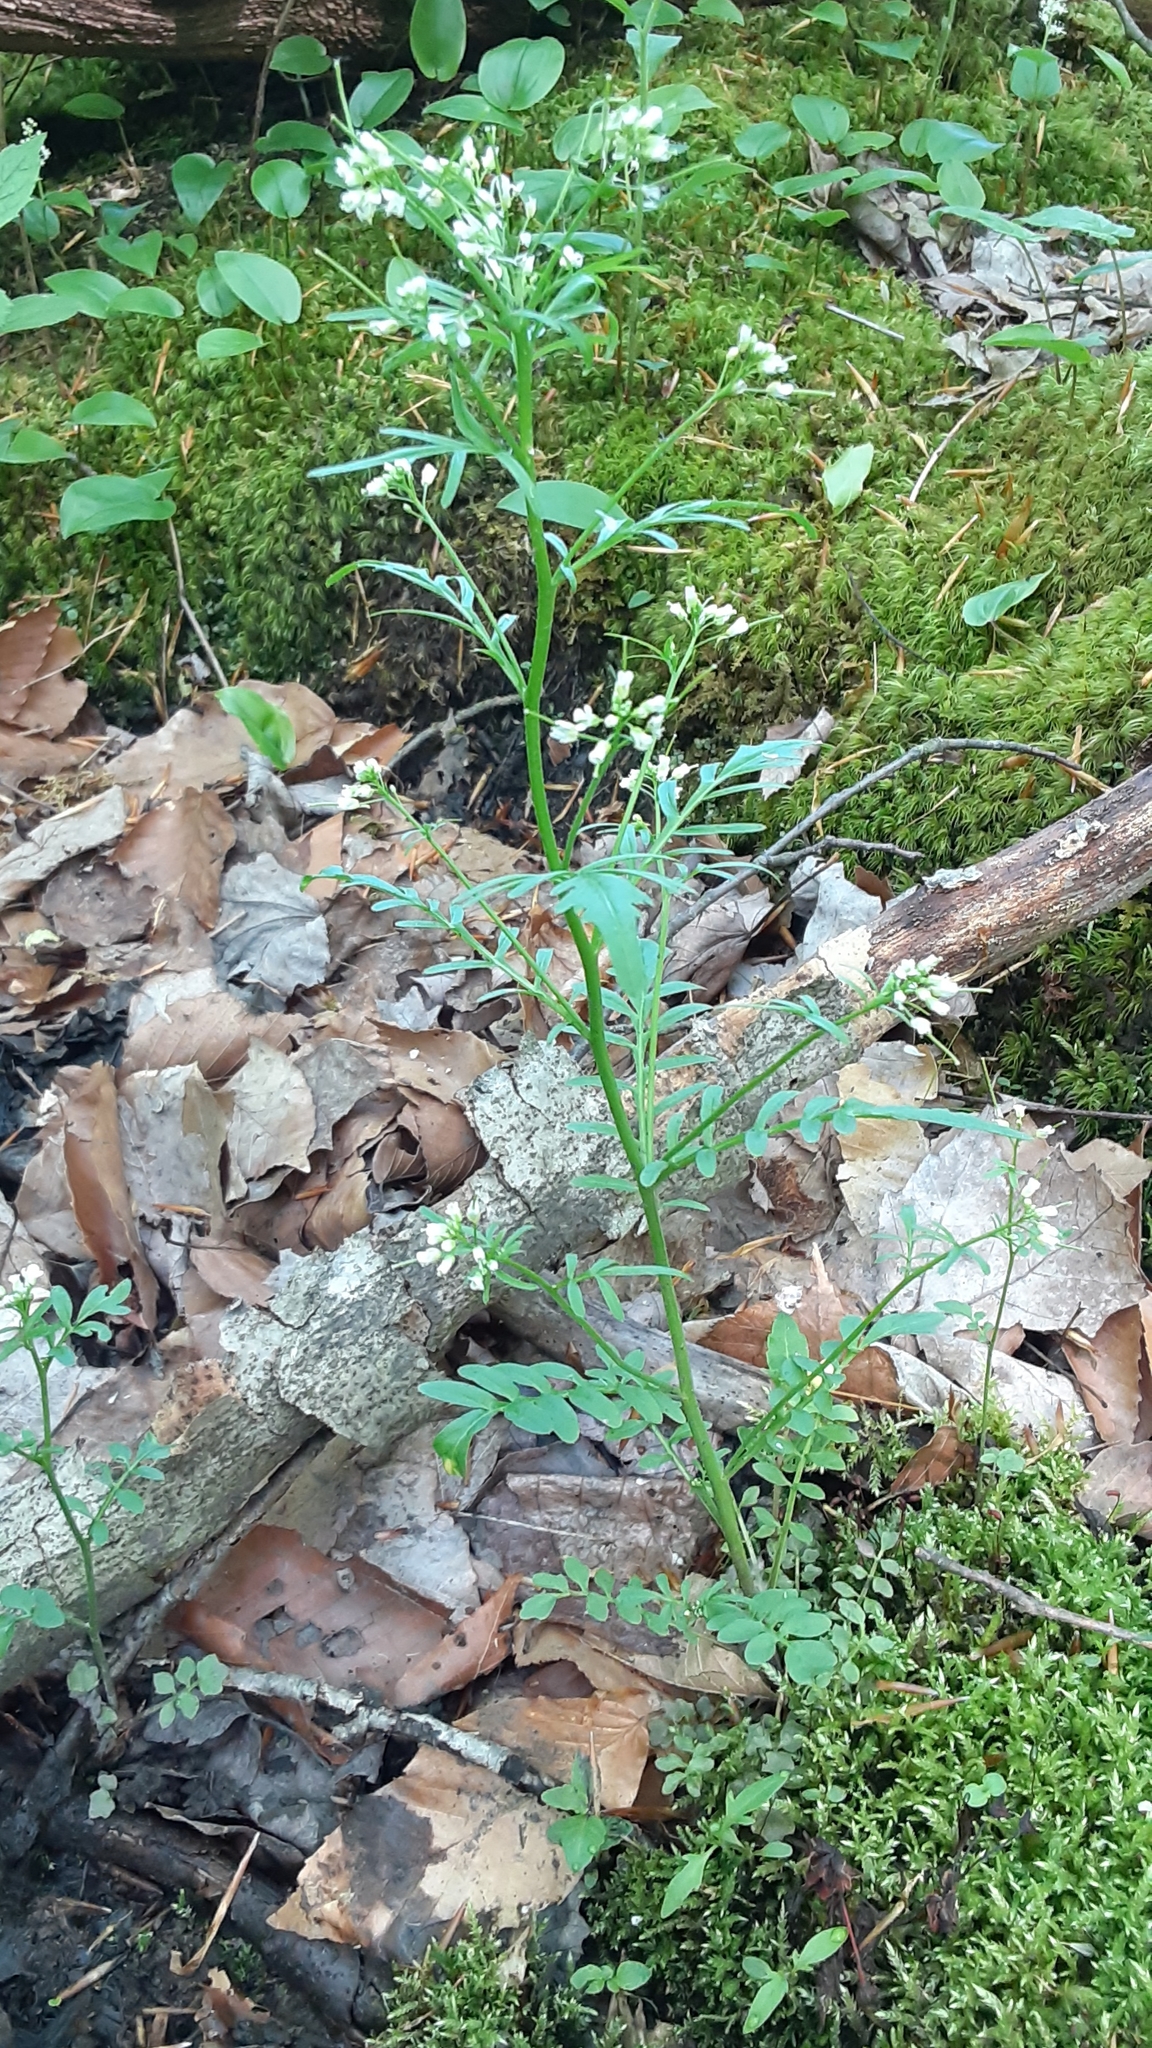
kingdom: Plantae
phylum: Tracheophyta
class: Magnoliopsida
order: Brassicales
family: Brassicaceae
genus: Cardamine
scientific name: Cardamine pensylvanica
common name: Pennsylvania bittercress
